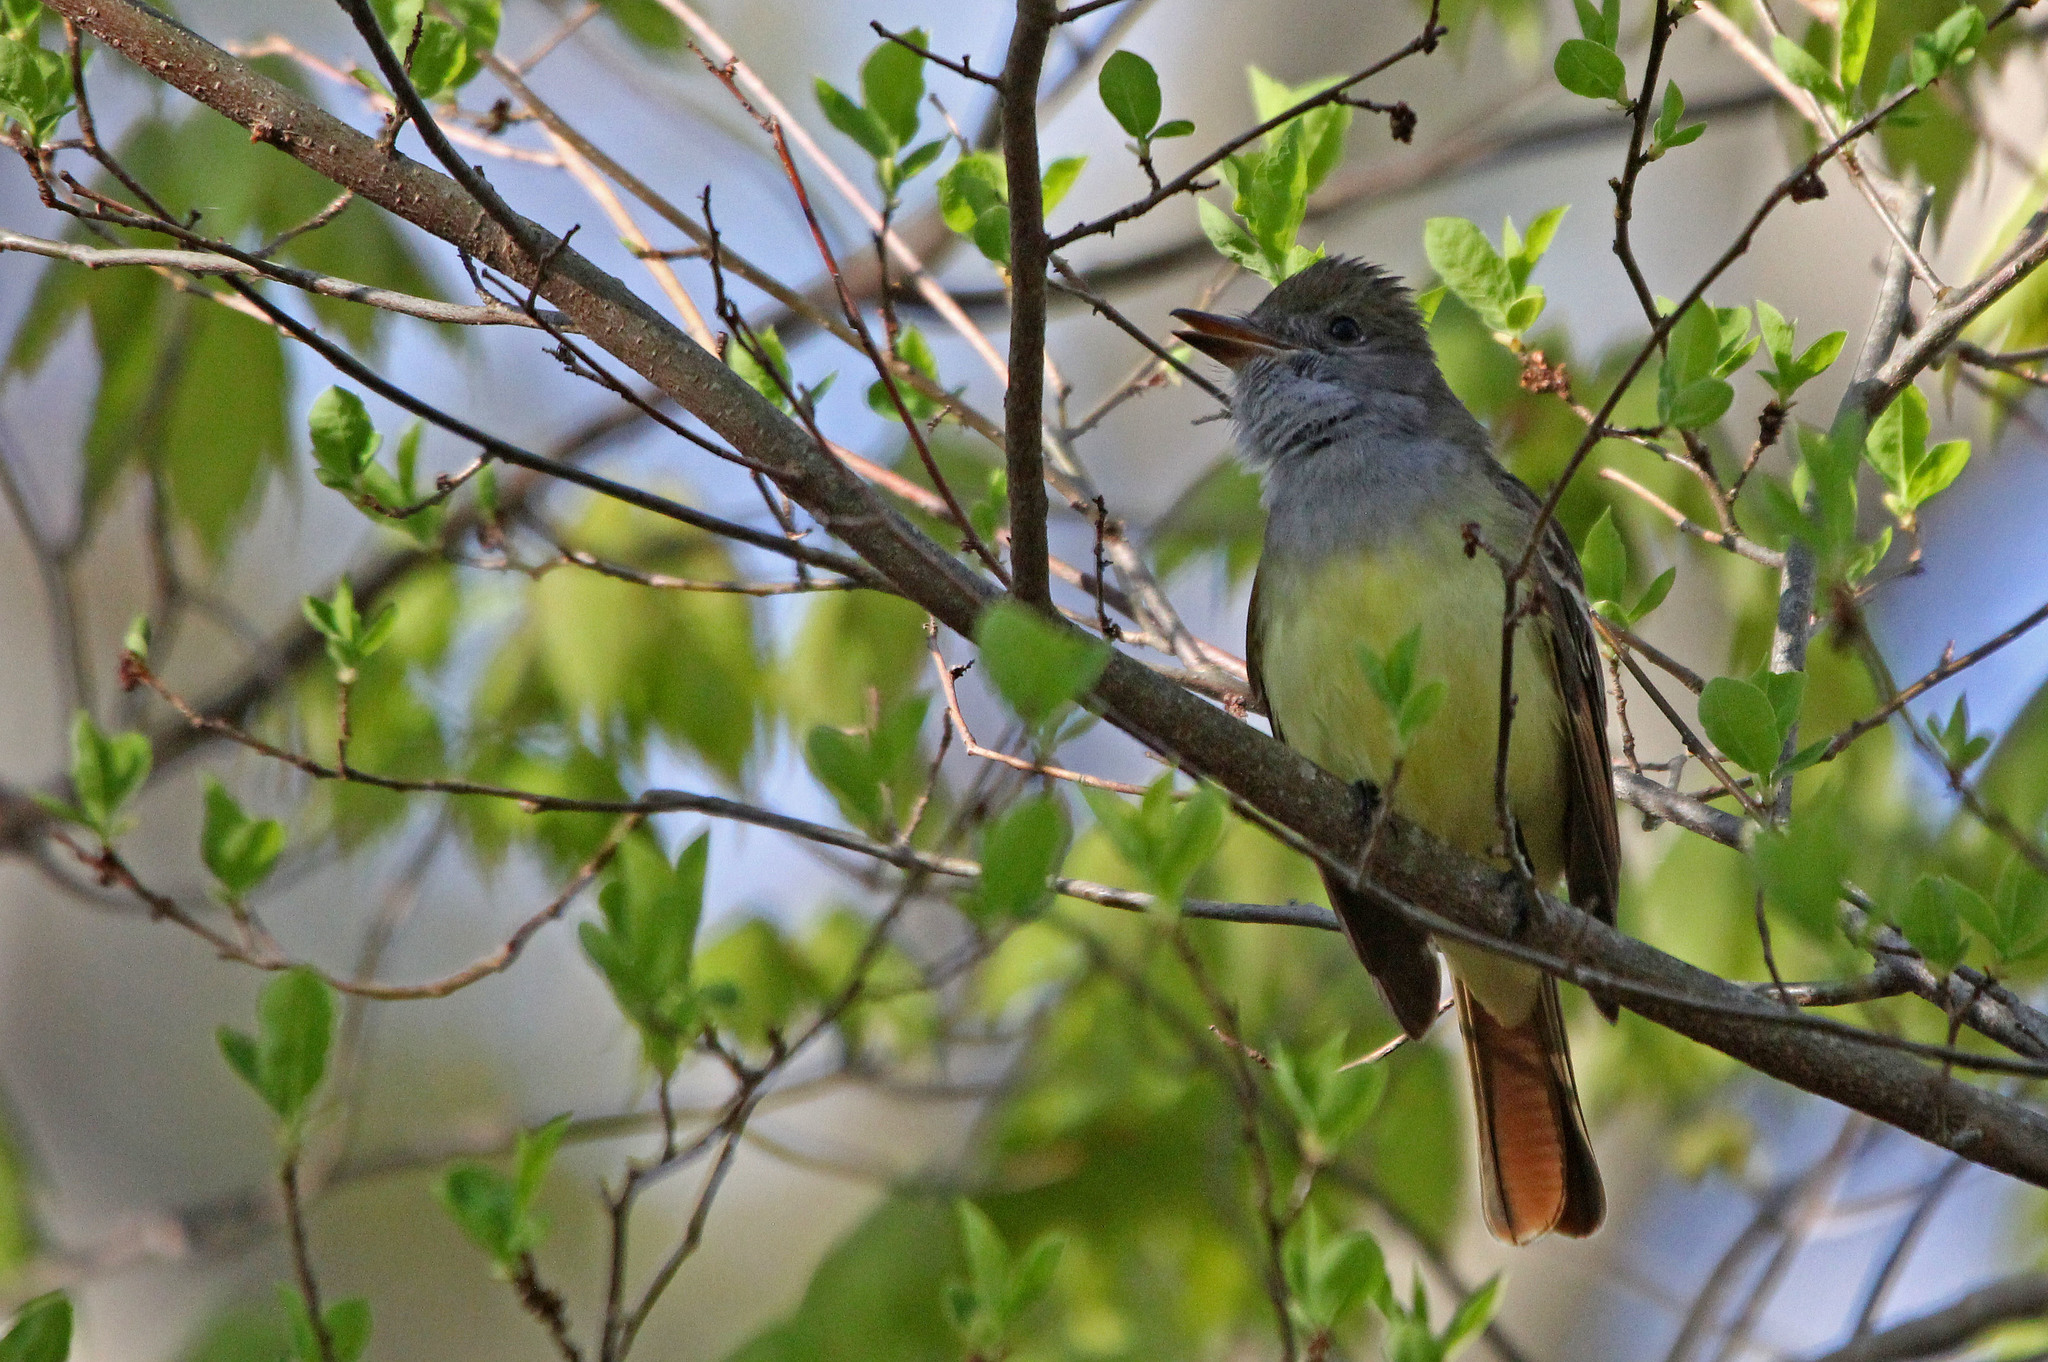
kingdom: Animalia
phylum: Chordata
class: Aves
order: Passeriformes
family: Tyrannidae
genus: Myiarchus
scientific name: Myiarchus crinitus
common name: Great crested flycatcher
